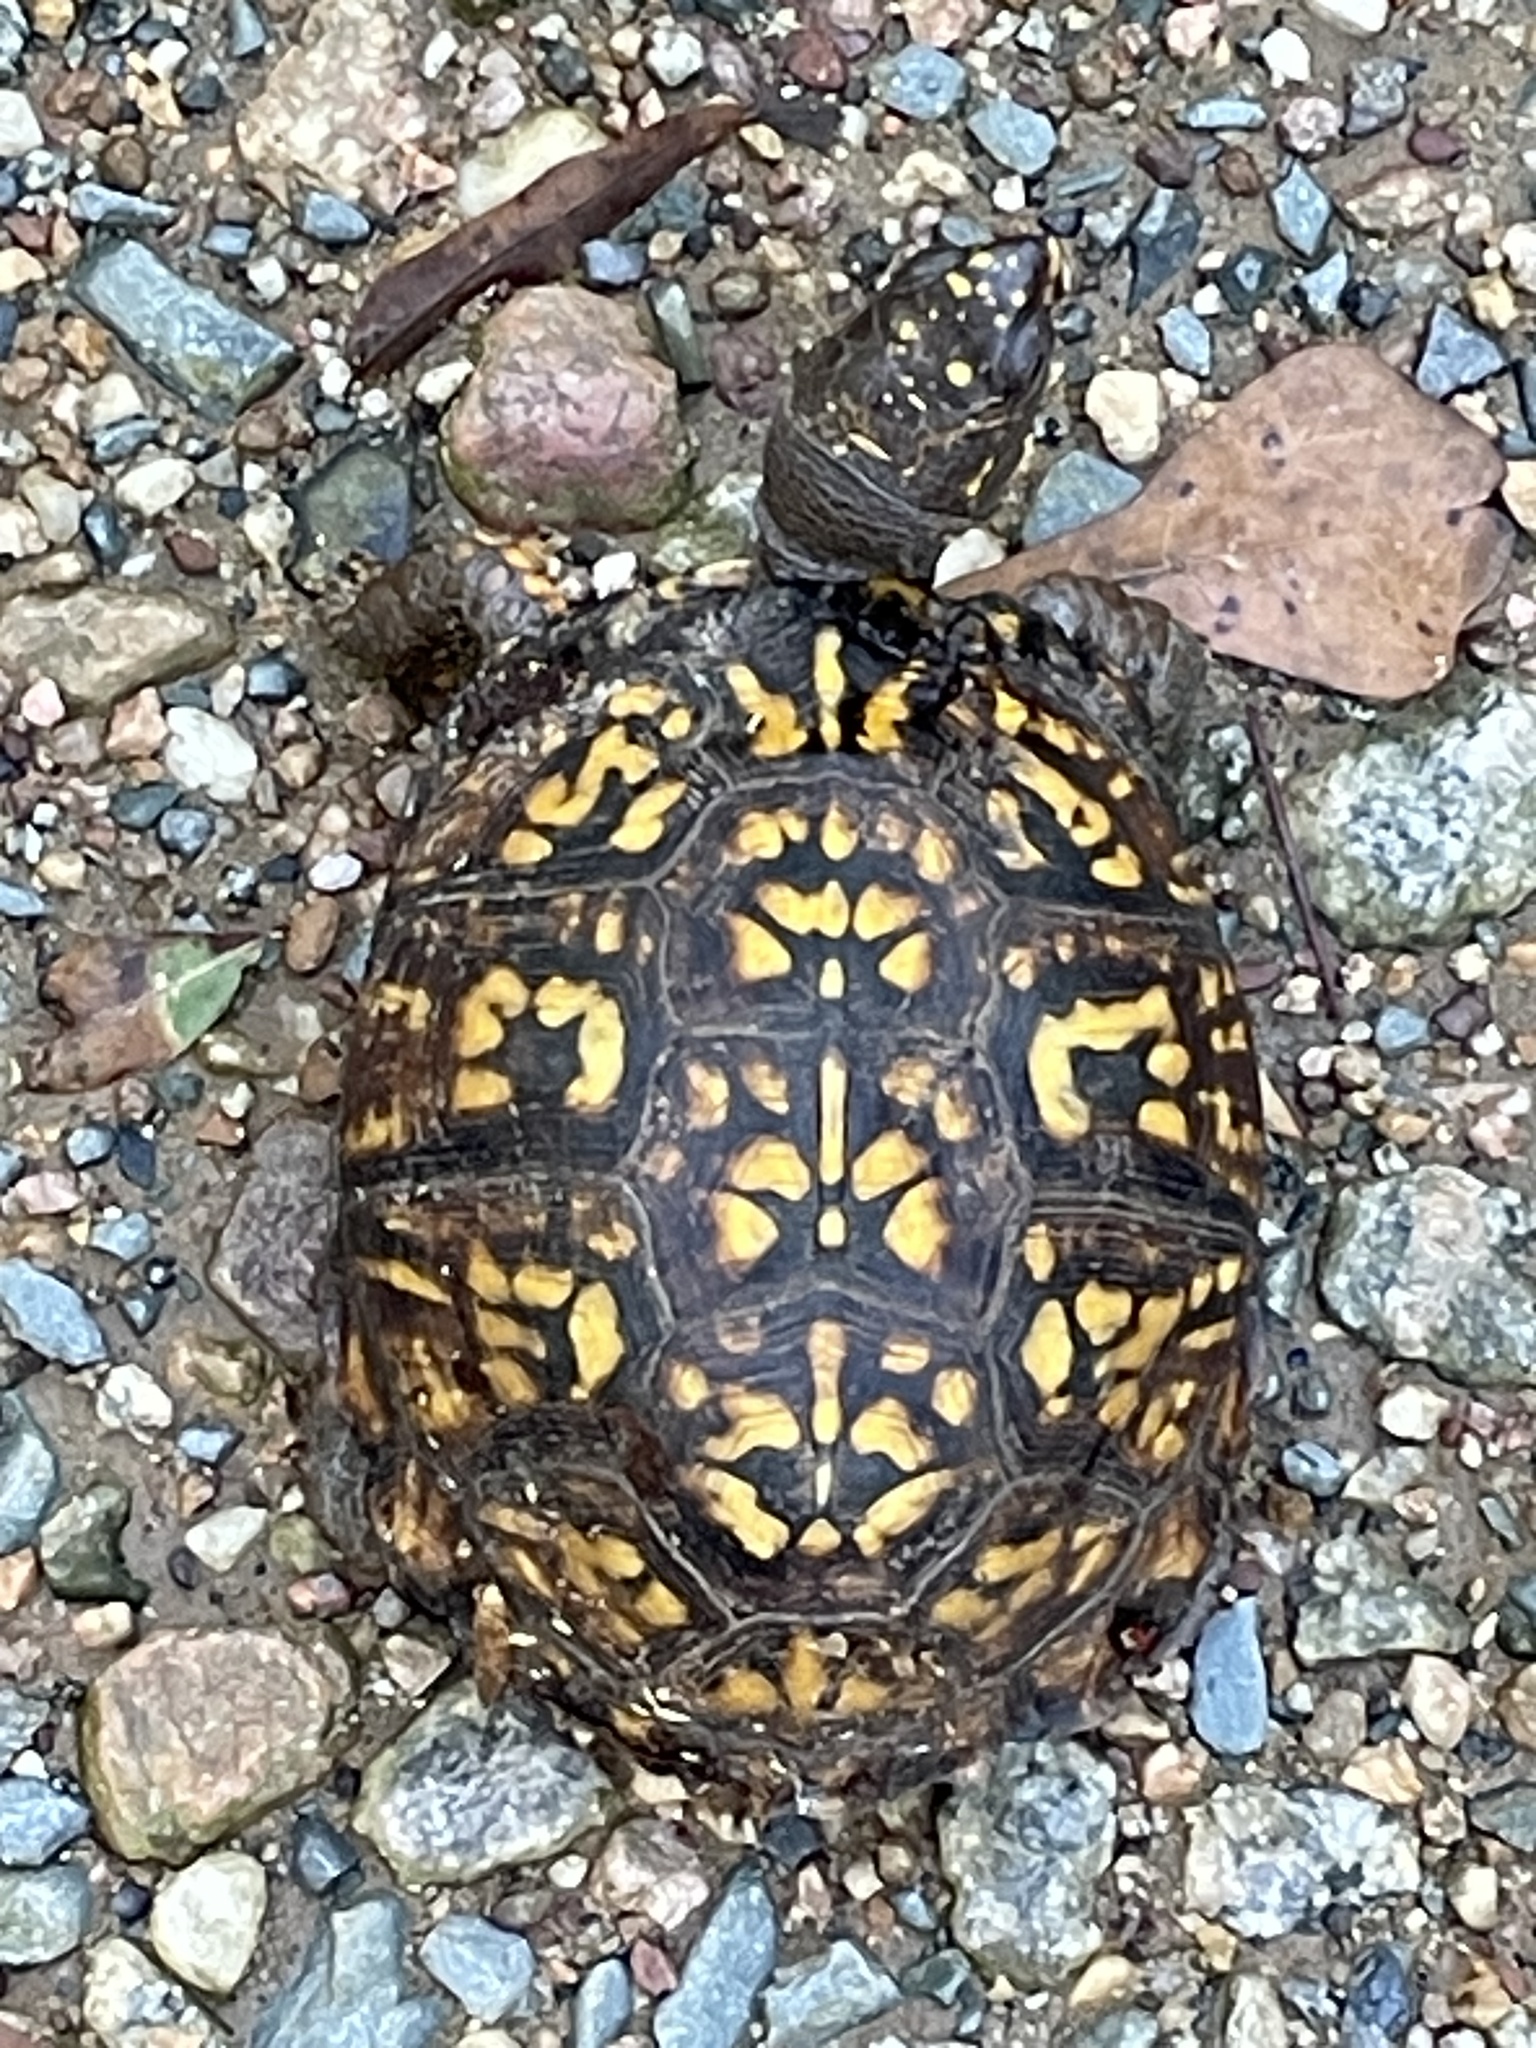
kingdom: Animalia
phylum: Chordata
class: Testudines
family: Emydidae
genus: Terrapene
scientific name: Terrapene carolina
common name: Common box turtle
